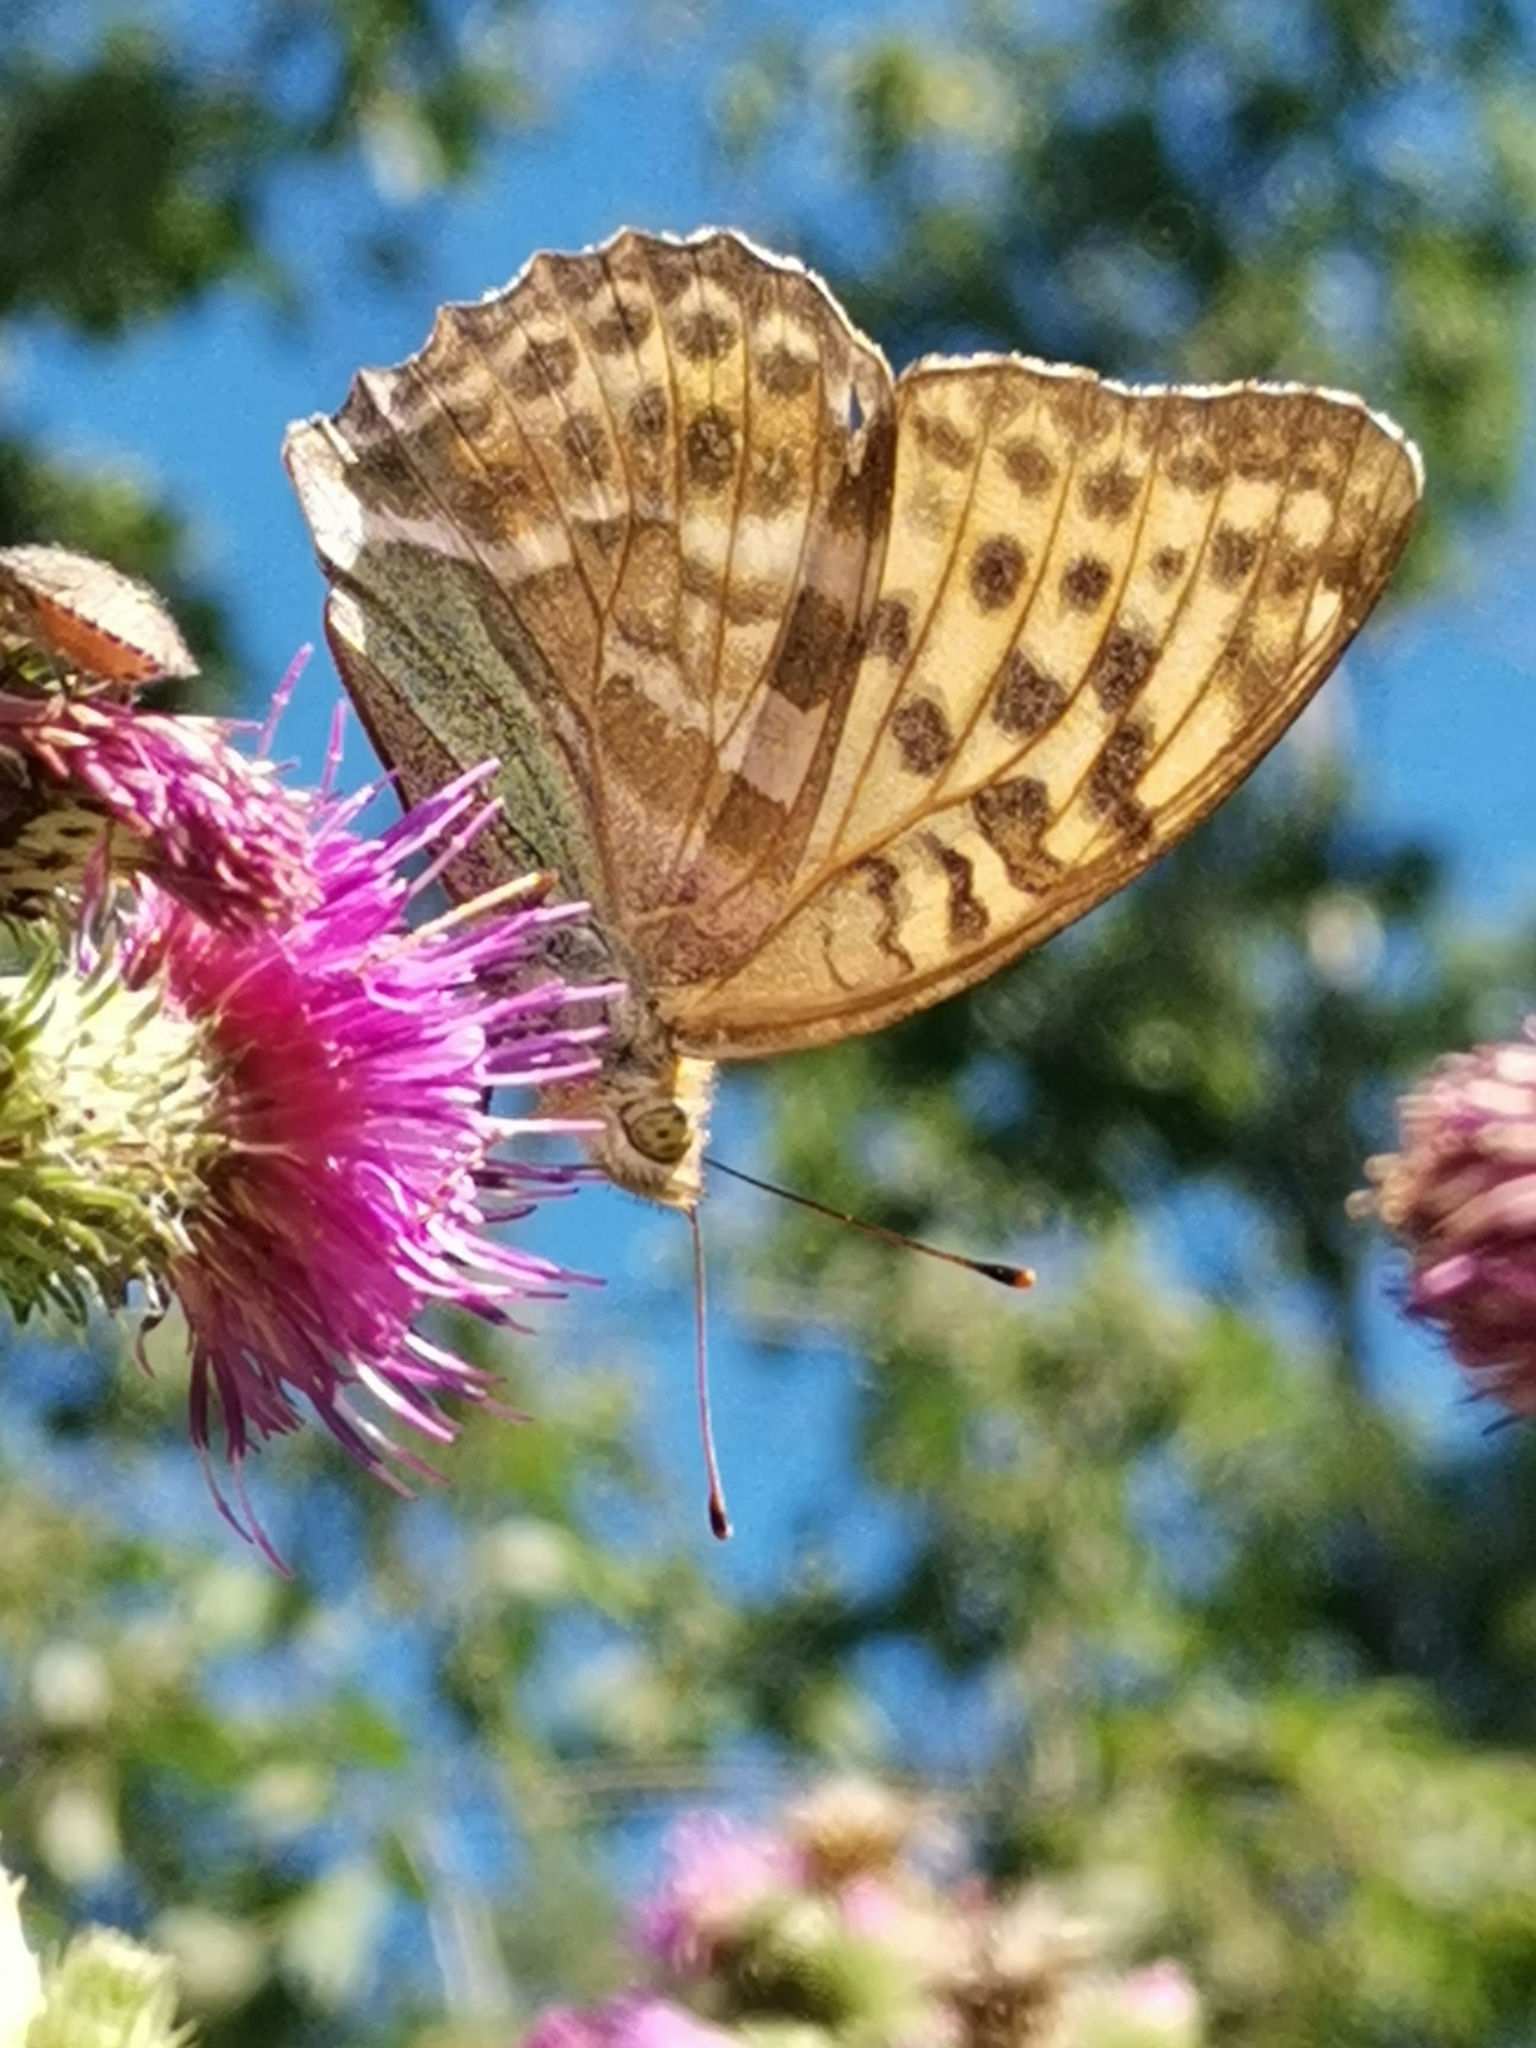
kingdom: Animalia
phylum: Arthropoda
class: Insecta
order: Lepidoptera
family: Nymphalidae
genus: Argynnis
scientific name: Argynnis paphia
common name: Silver-washed fritillary
